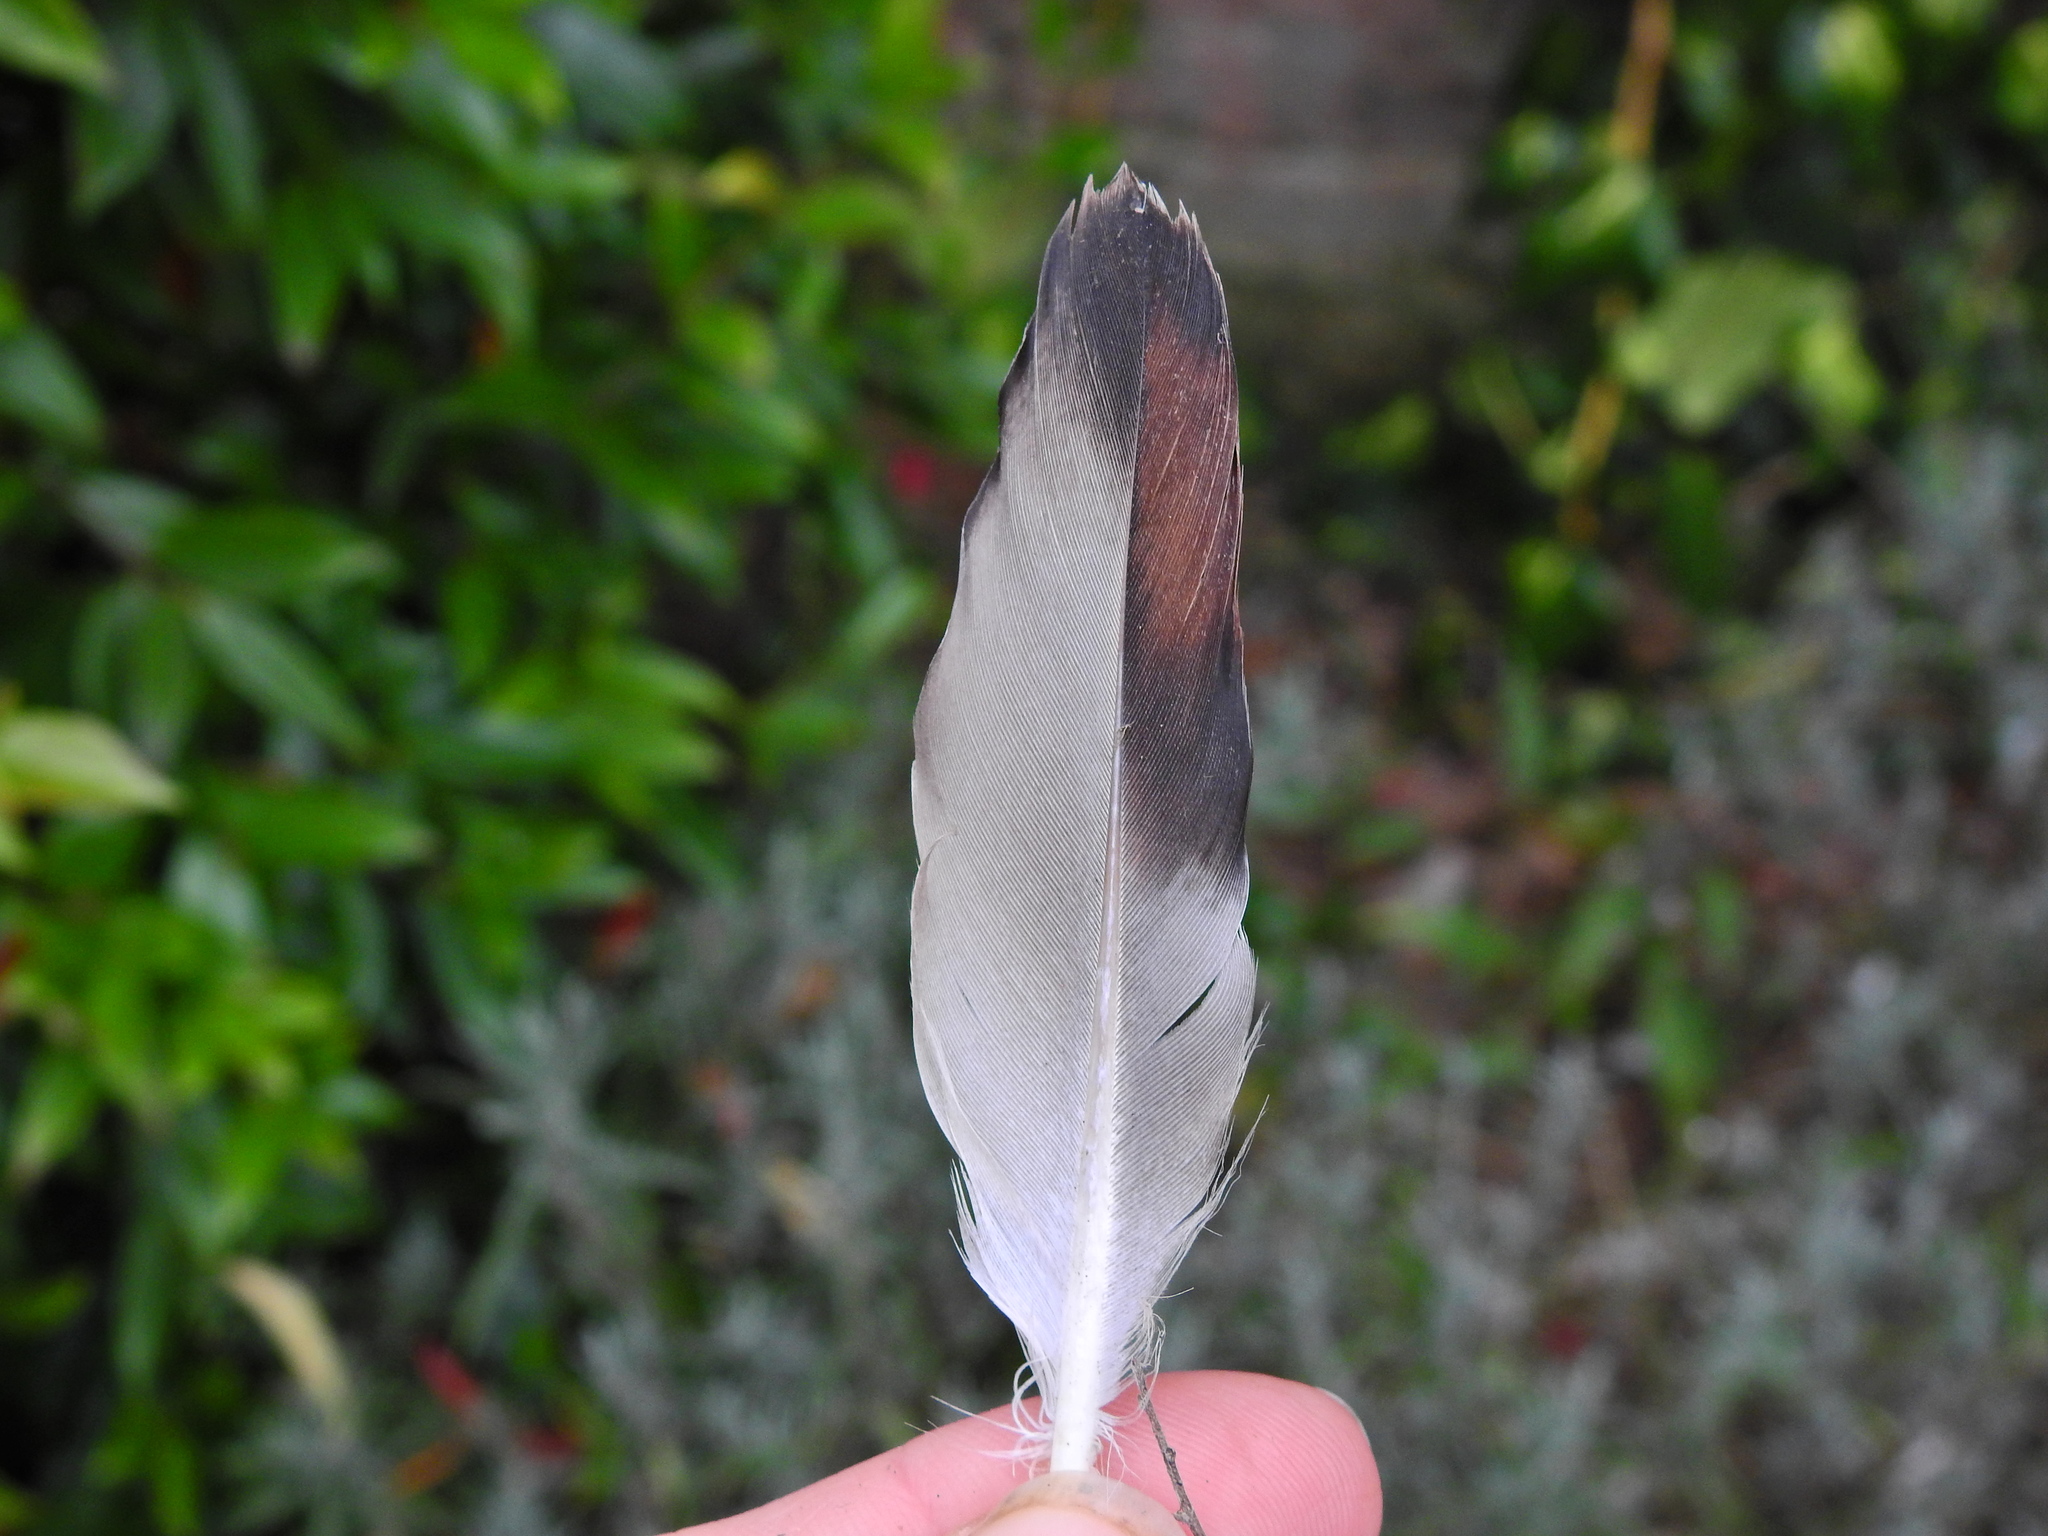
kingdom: Animalia
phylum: Chordata
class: Aves
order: Columbiformes
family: Columbidae
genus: Columba
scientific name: Columba livia
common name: Rock pigeon
